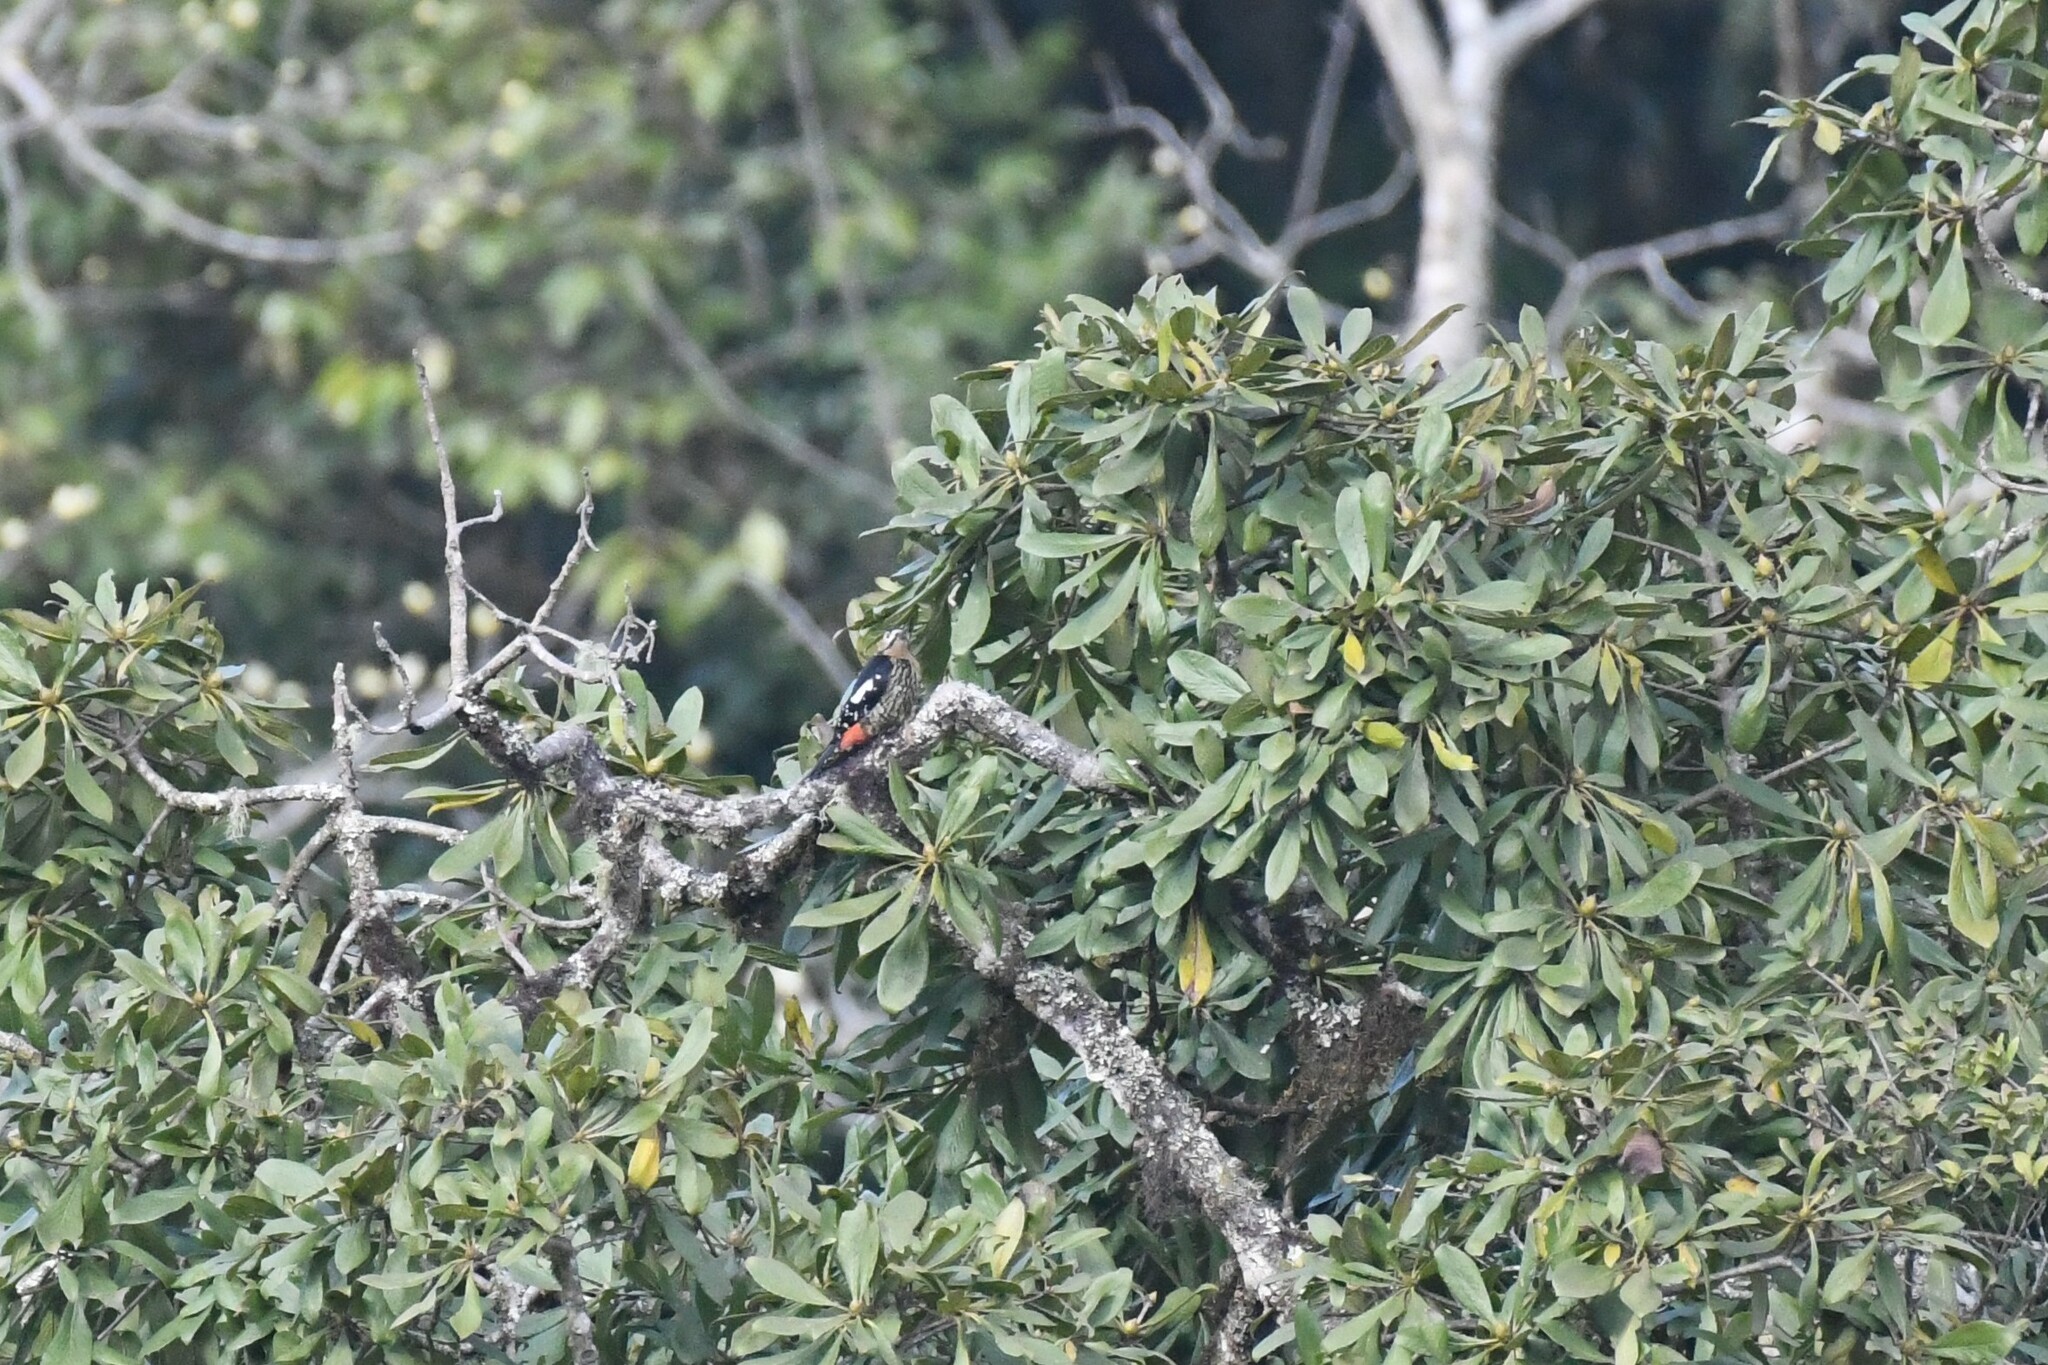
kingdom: Animalia
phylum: Chordata
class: Aves
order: Piciformes
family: Picidae
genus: Dendrocopos
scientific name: Dendrocopos darjellensis
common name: Darjeeling woodpecker
